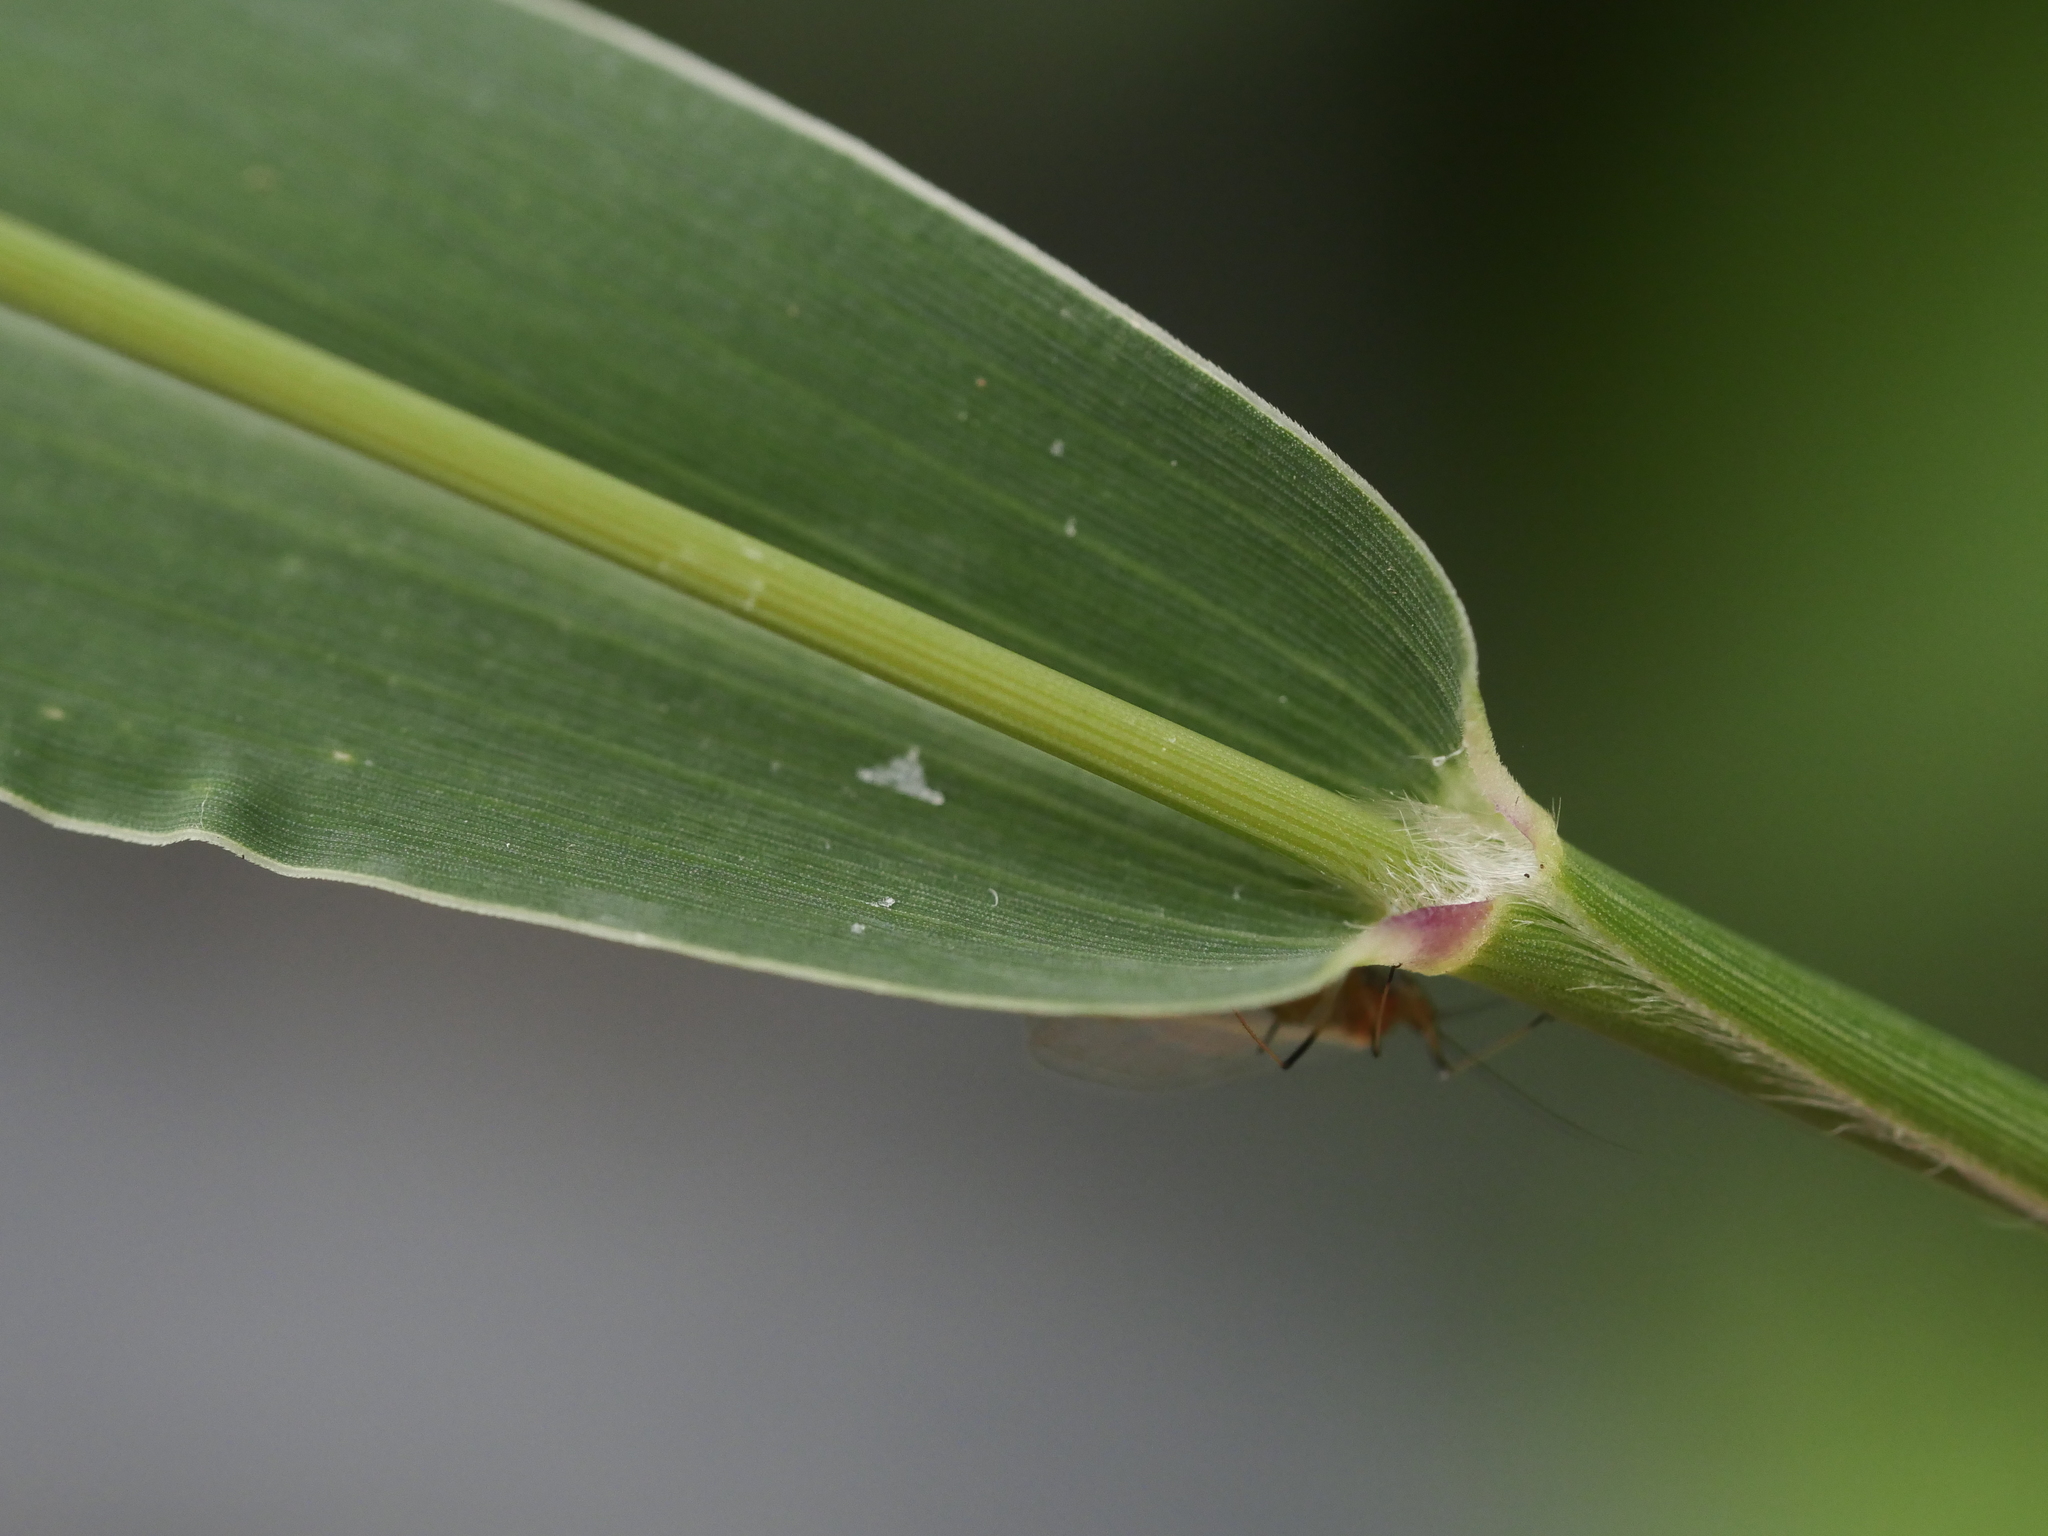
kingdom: Plantae
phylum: Tracheophyta
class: Liliopsida
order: Poales
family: Poaceae
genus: Setaria
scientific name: Setaria viridis
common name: Green bristlegrass
